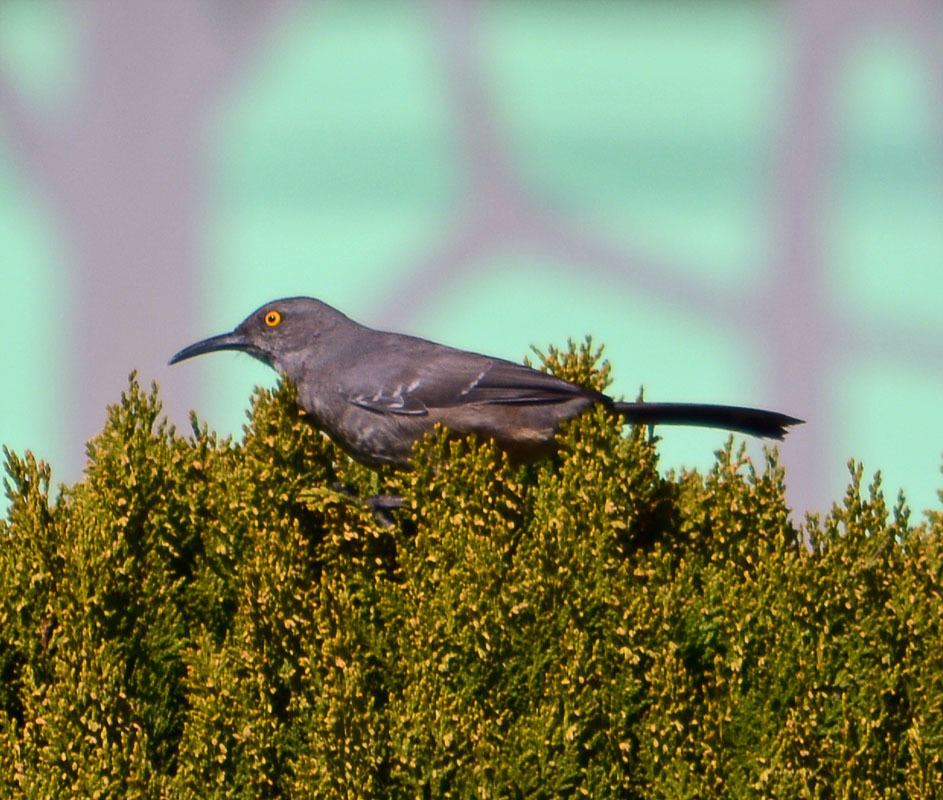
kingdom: Animalia
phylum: Chordata
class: Aves
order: Passeriformes
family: Mimidae
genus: Toxostoma
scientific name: Toxostoma curvirostre
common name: Curve-billed thrasher
